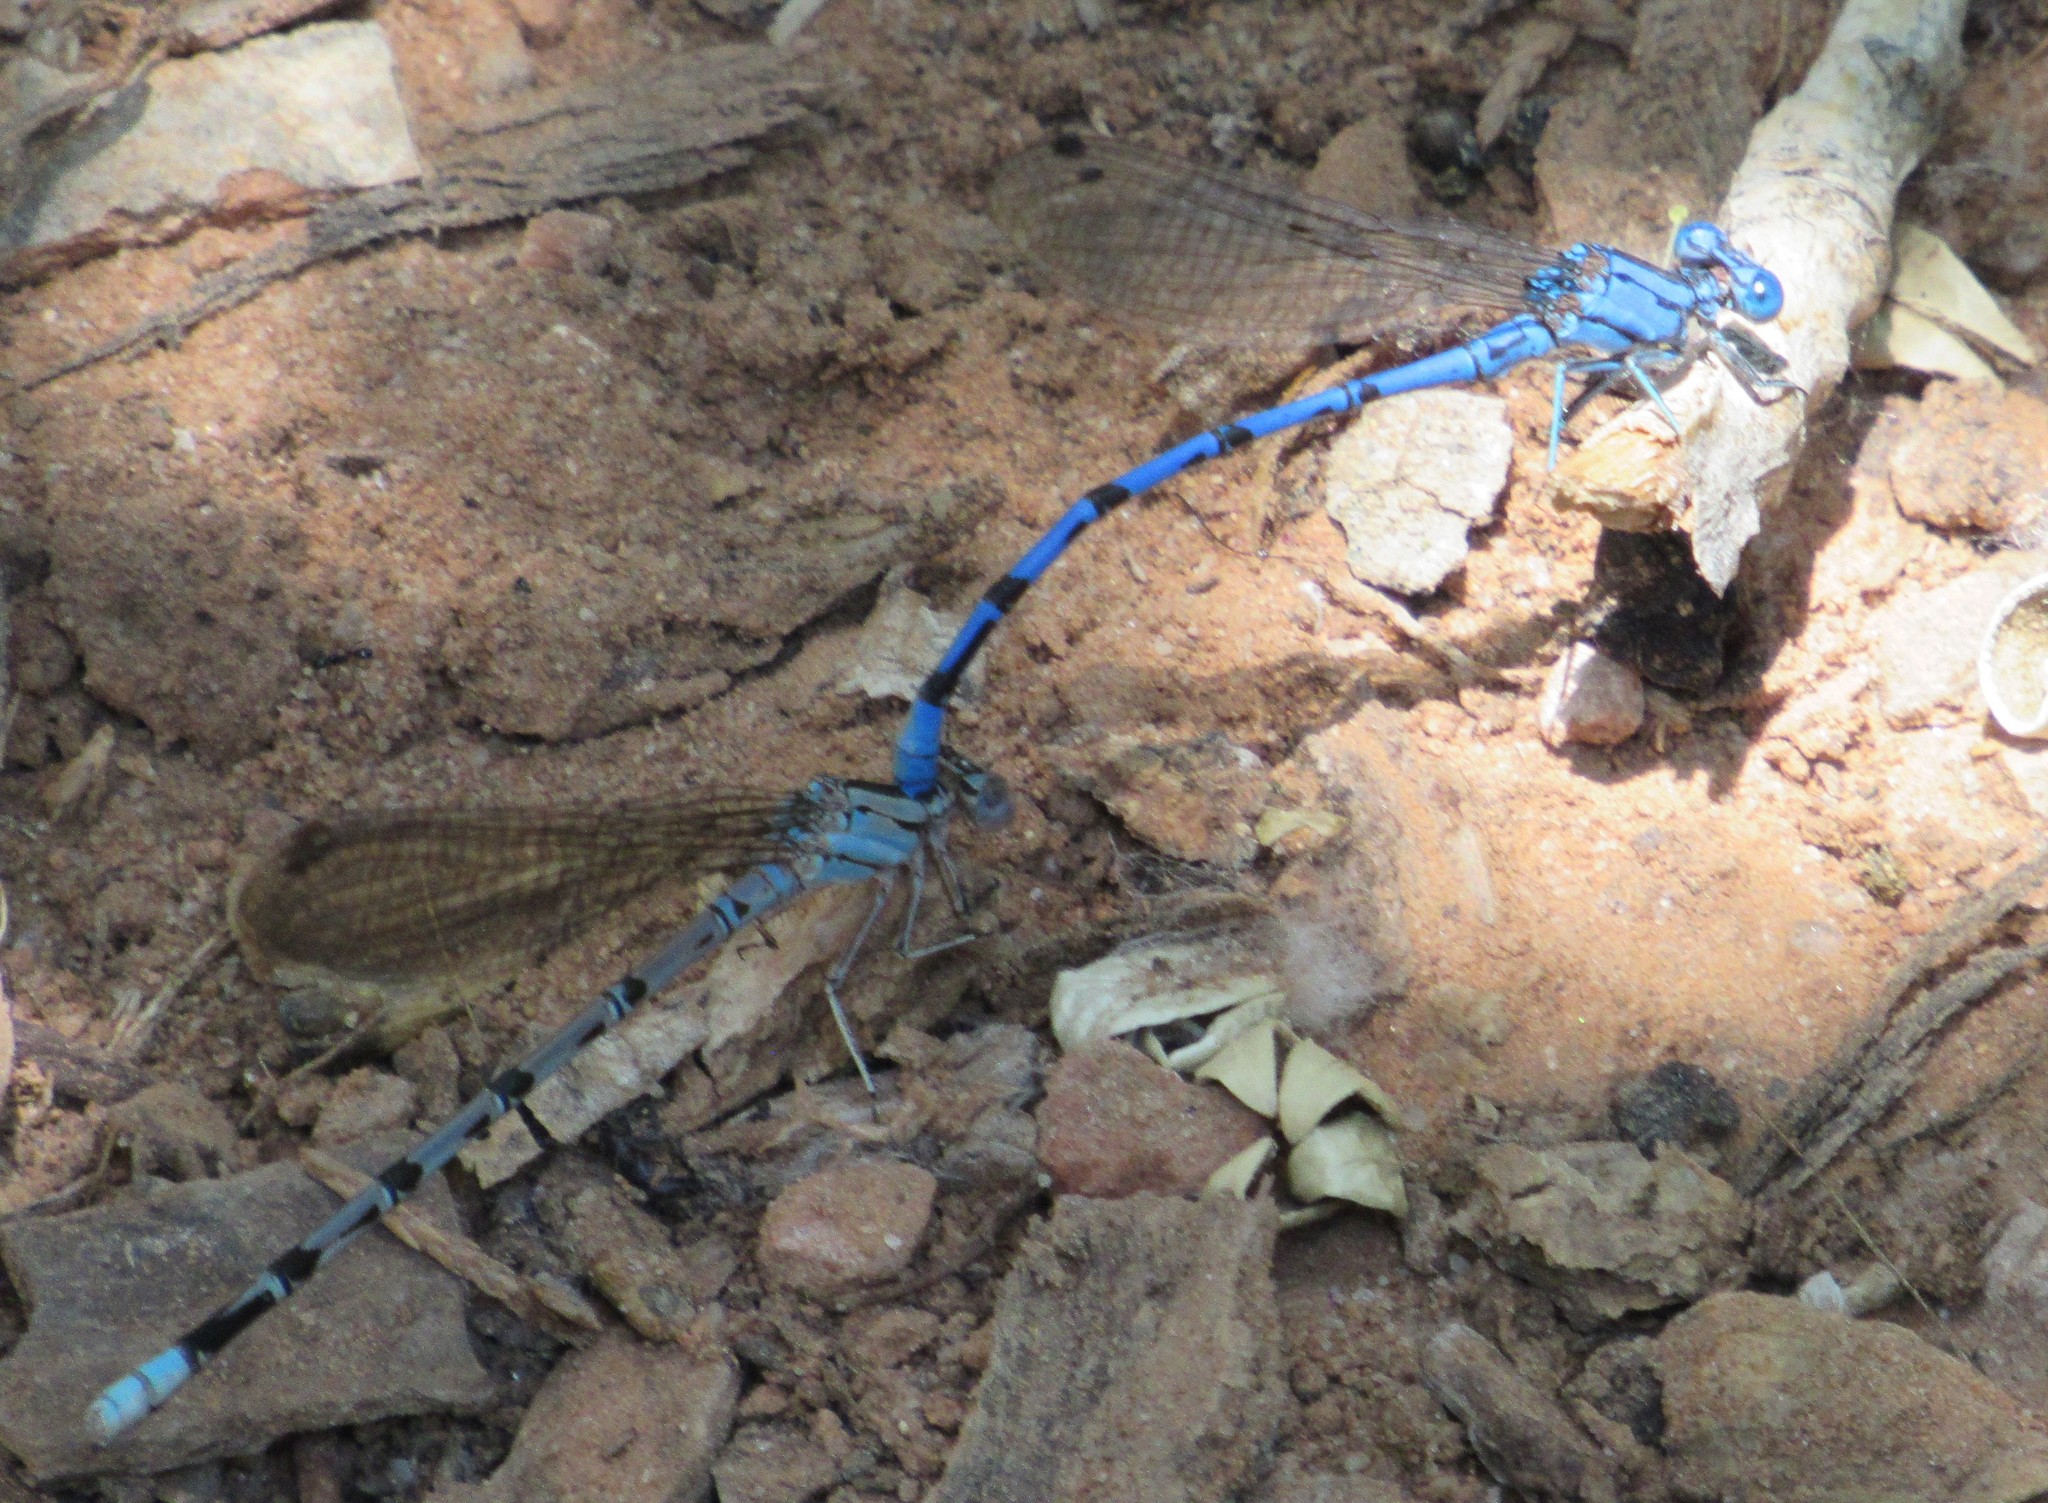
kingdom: Animalia
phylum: Arthropoda
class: Insecta
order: Odonata
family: Coenagrionidae
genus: Argia
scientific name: Argia funebris
